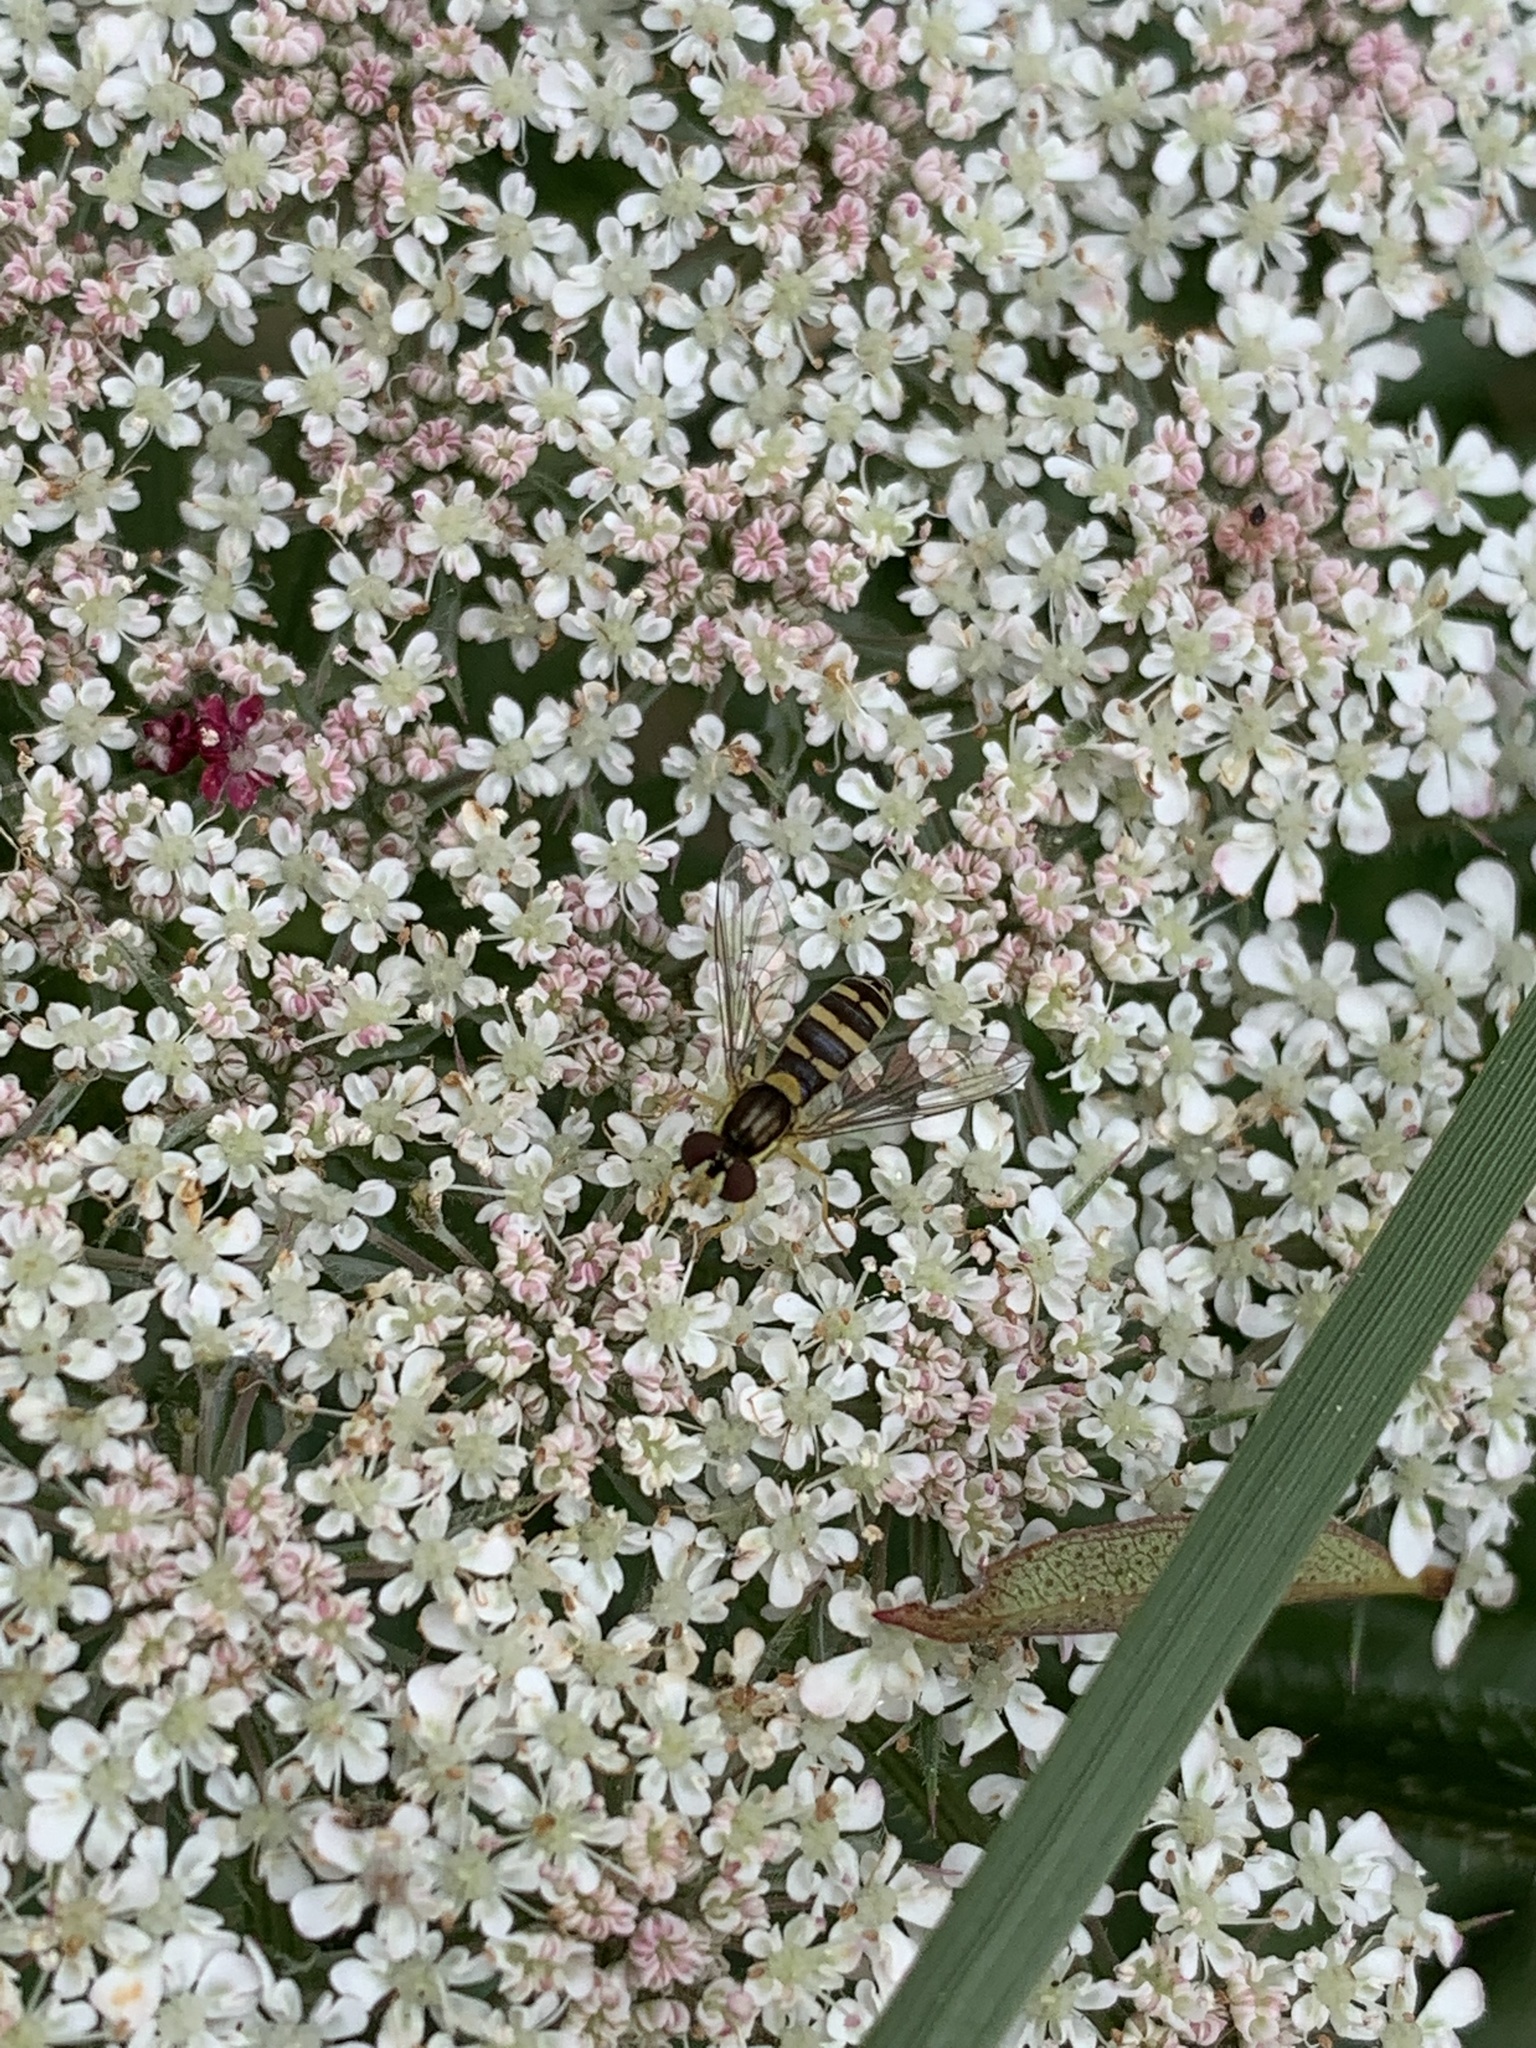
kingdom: Animalia
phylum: Arthropoda
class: Insecta
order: Diptera
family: Syrphidae
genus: Sphaerophoria
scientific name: Sphaerophoria
